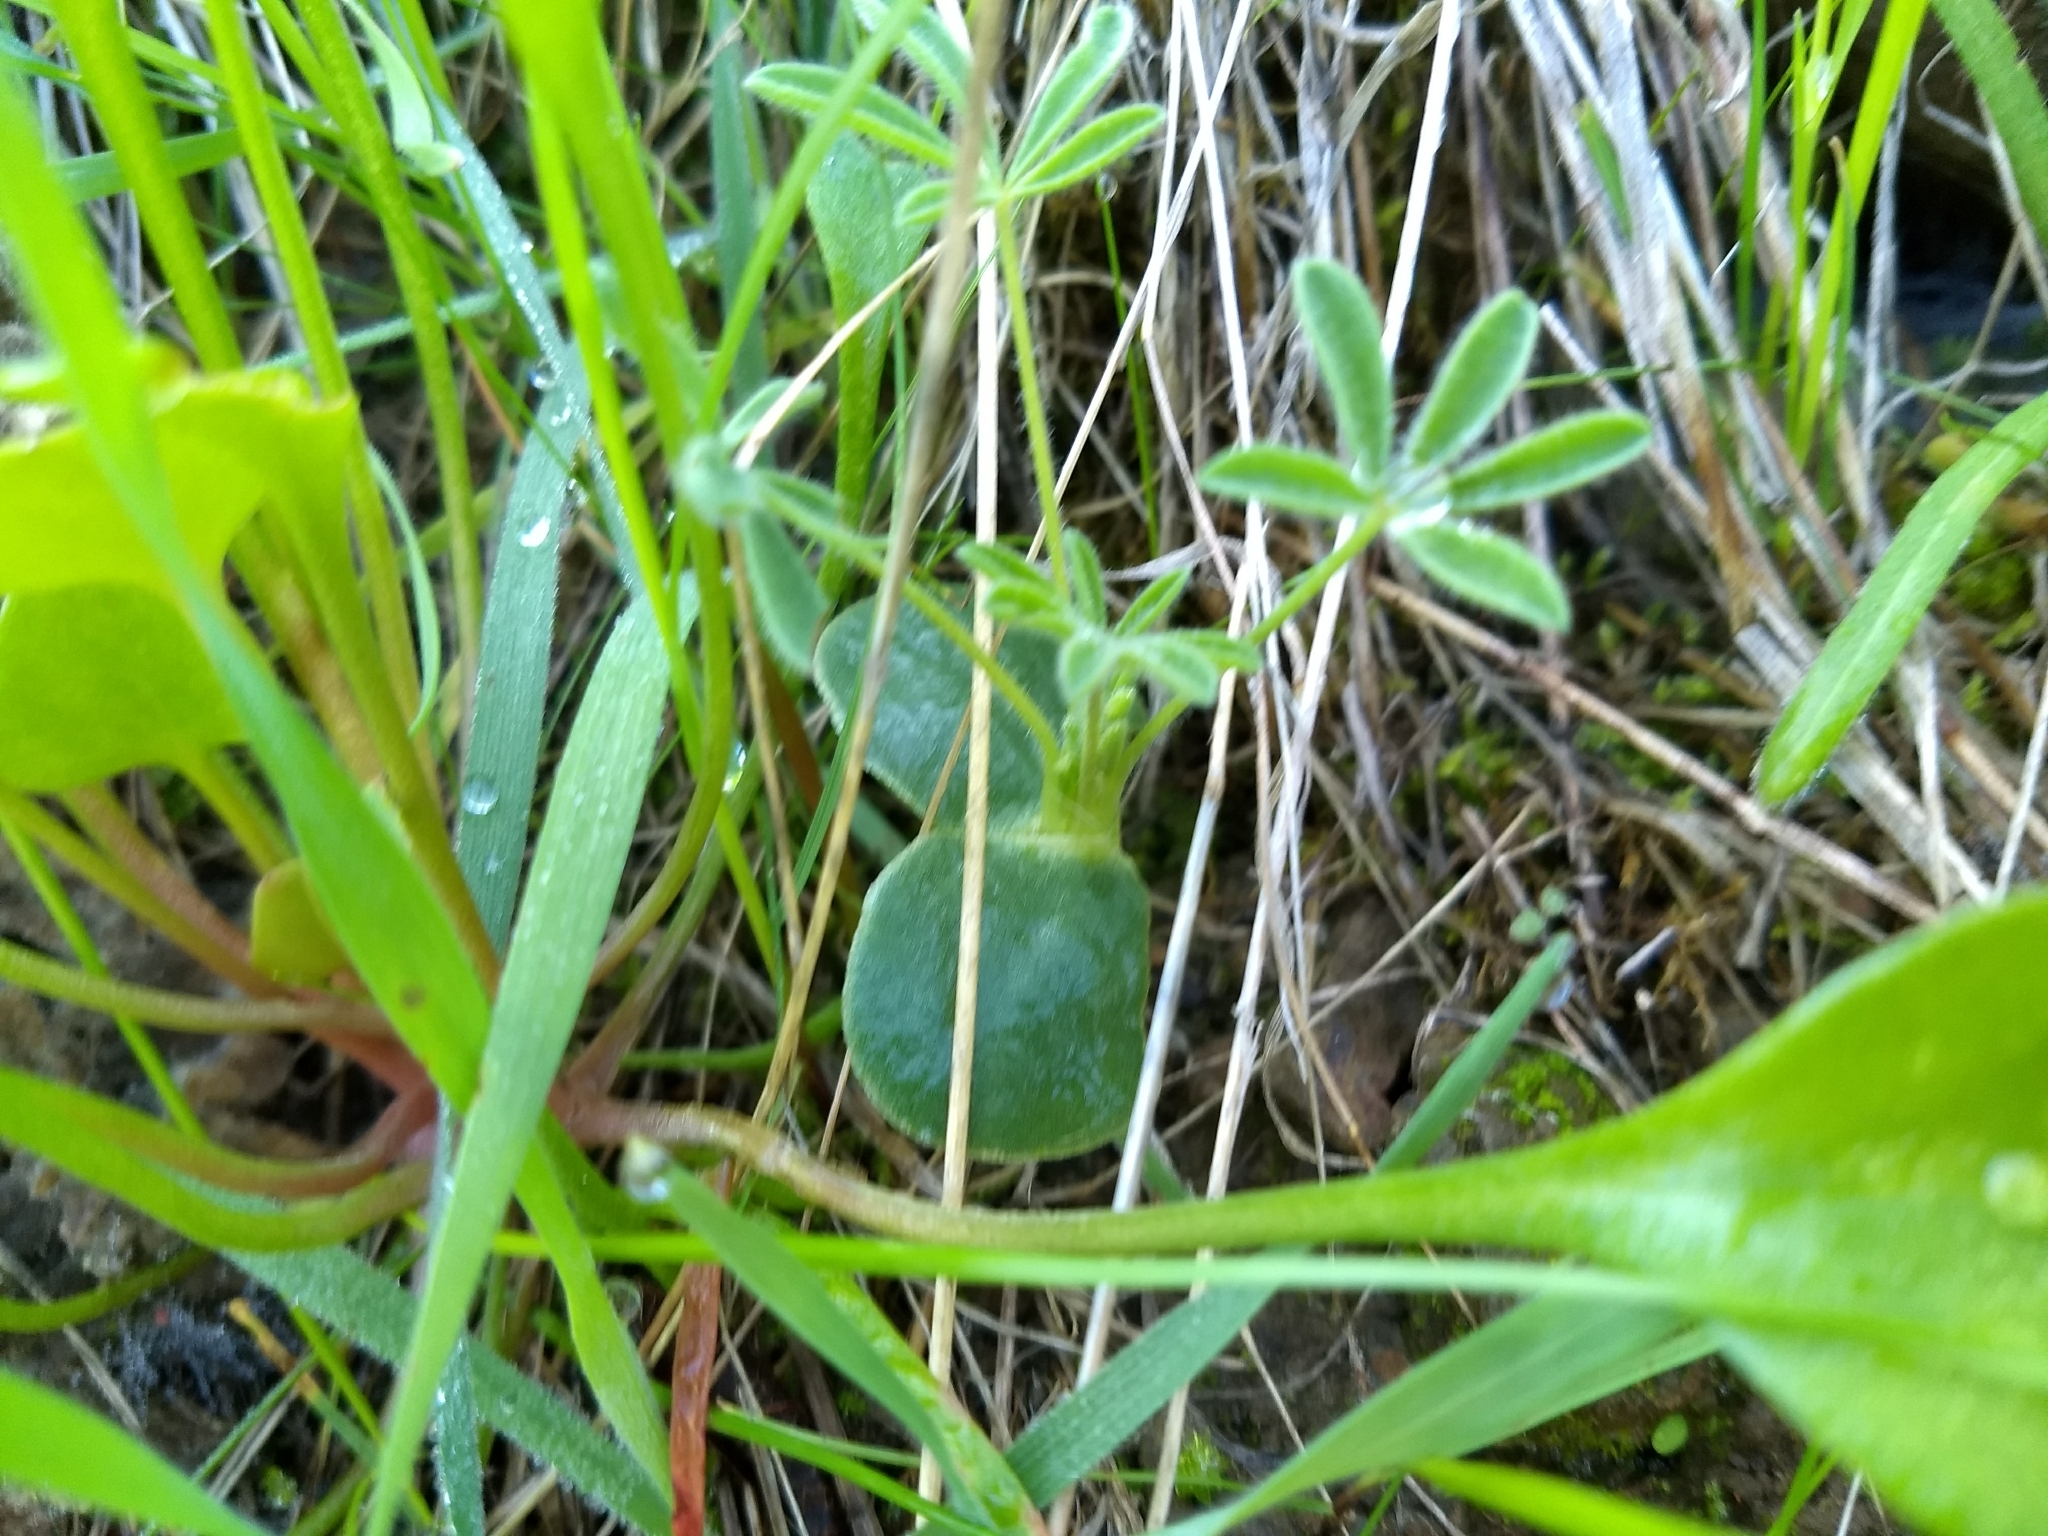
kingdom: Plantae
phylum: Tracheophyta
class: Magnoliopsida
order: Fabales
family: Fabaceae
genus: Lupinus
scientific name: Lupinus microcarpus
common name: Chick lupine
